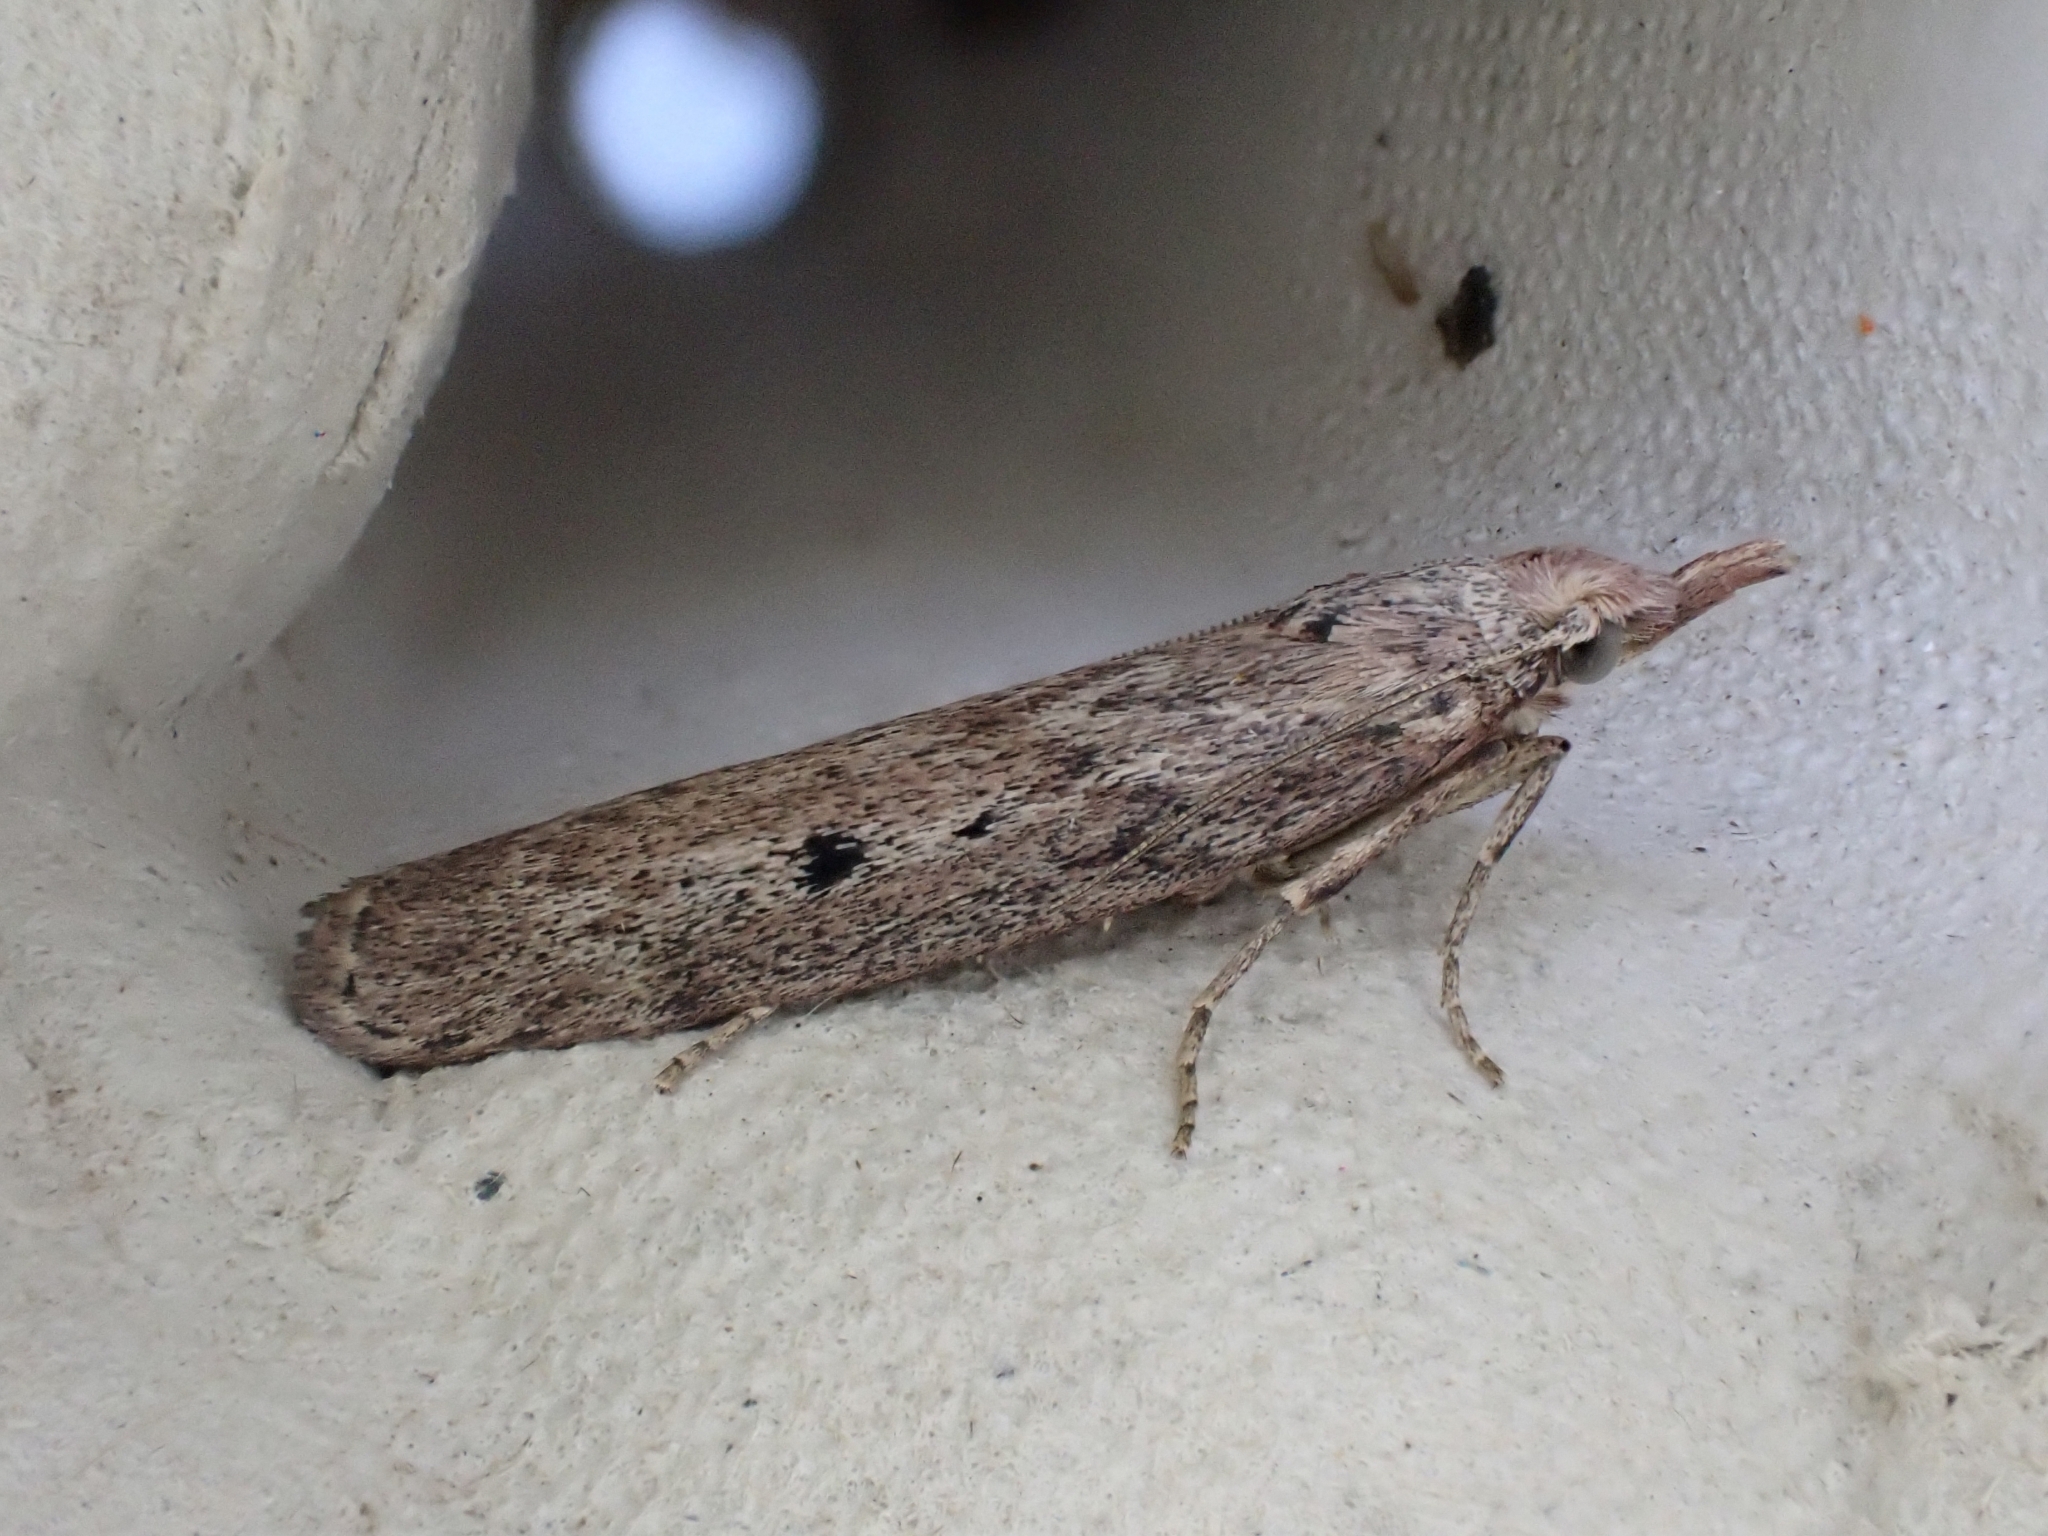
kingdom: Animalia
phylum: Arthropoda
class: Insecta
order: Lepidoptera
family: Pyralidae
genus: Aphomia
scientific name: Aphomia sociella
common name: Bee moth
